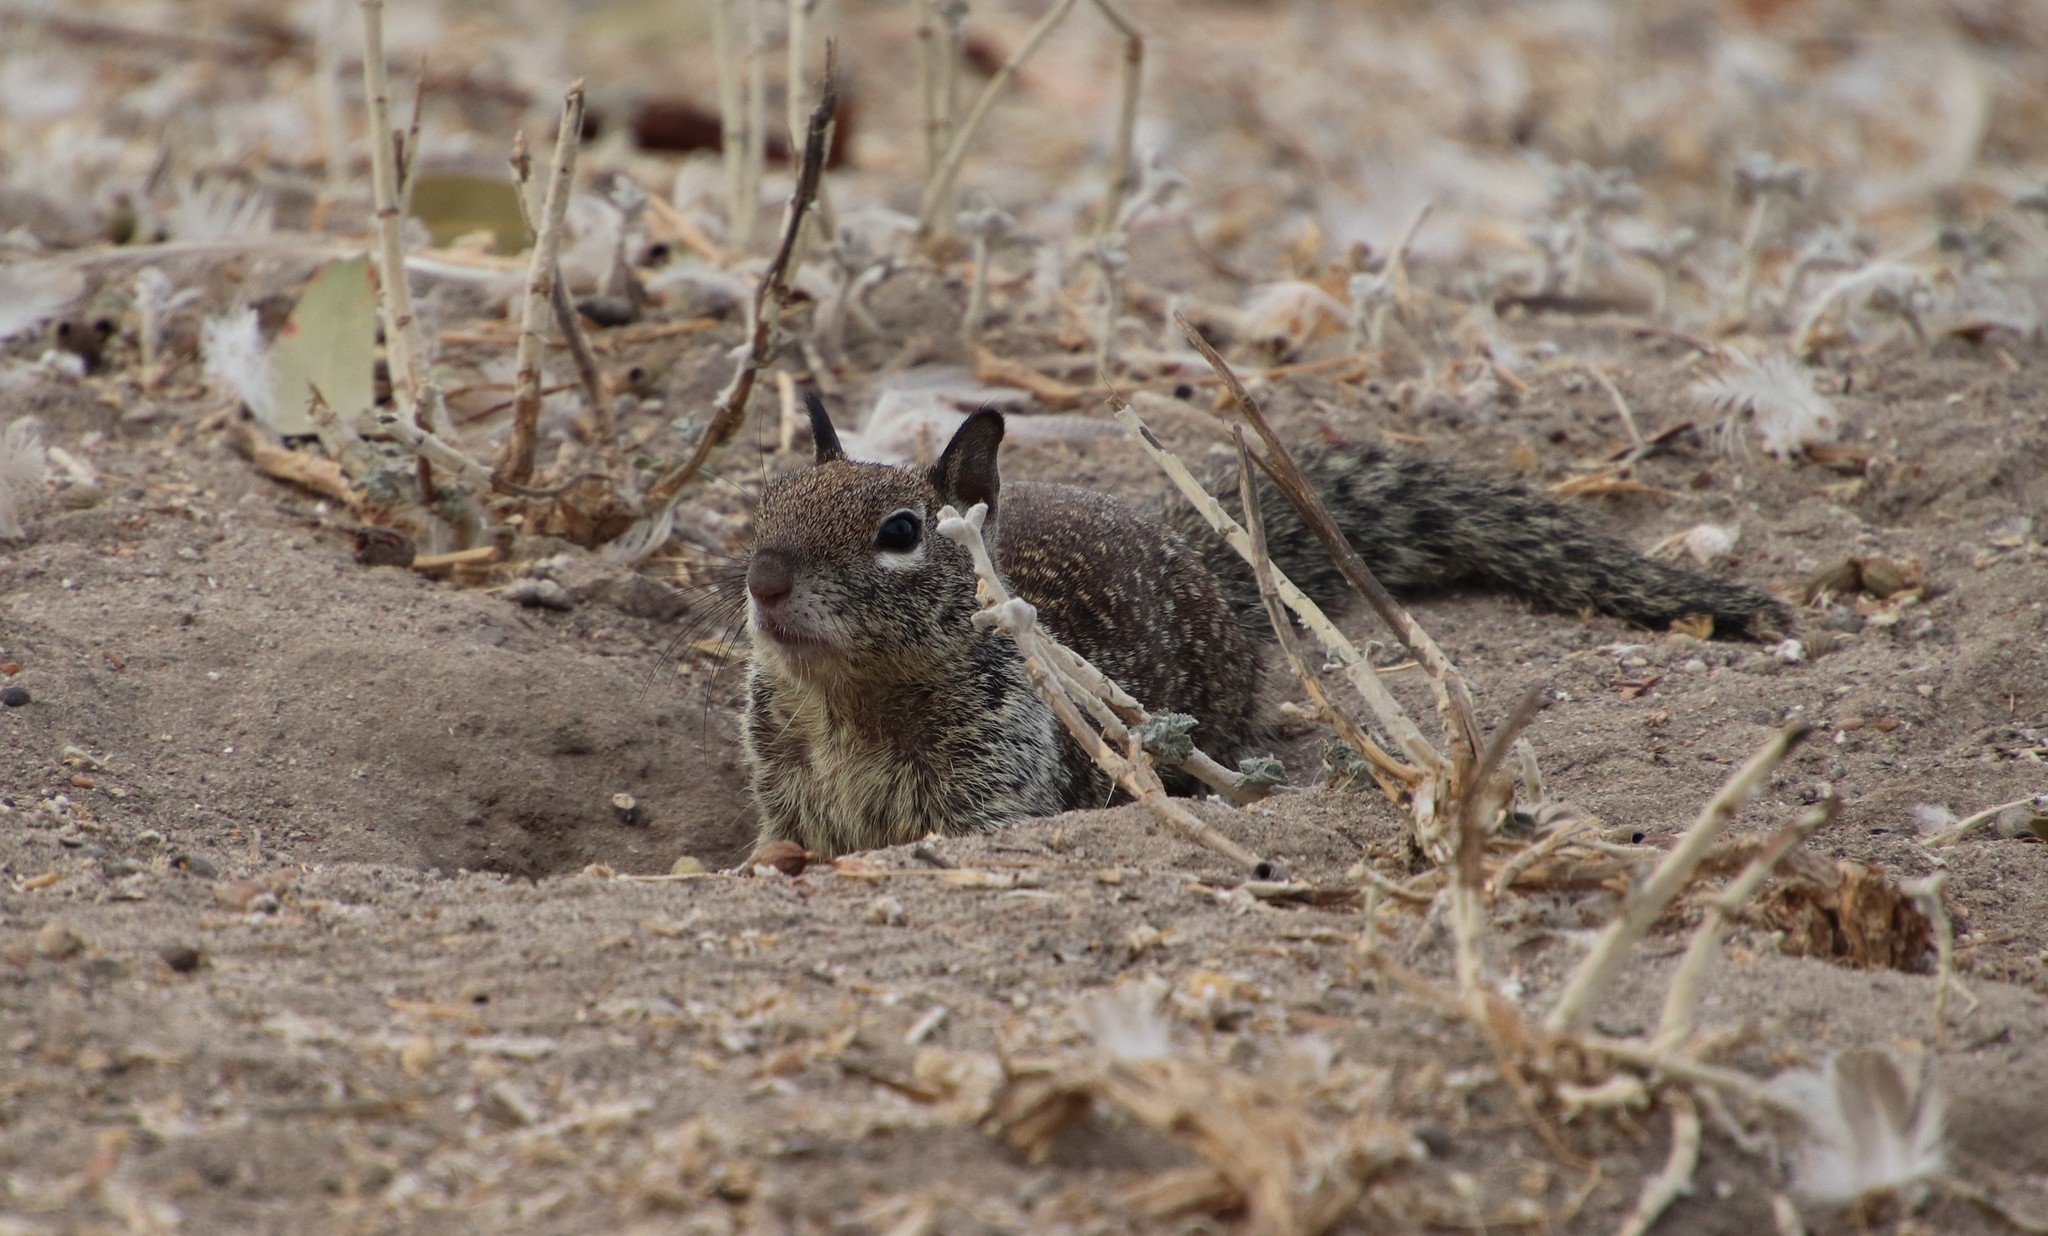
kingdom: Animalia
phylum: Chordata
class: Mammalia
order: Rodentia
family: Sciuridae
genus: Otospermophilus
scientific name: Otospermophilus beecheyi
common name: California ground squirrel
